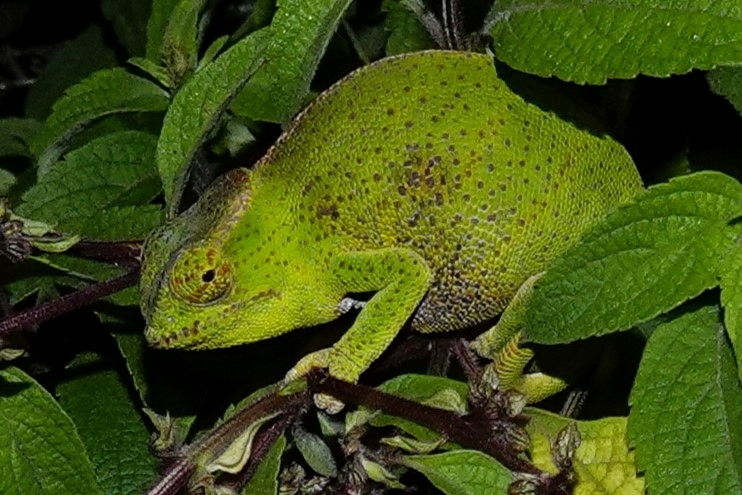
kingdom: Animalia
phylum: Chordata
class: Squamata
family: Chamaeleonidae
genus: Furcifer
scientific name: Furcifer willsii
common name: Wills’ chameleon
